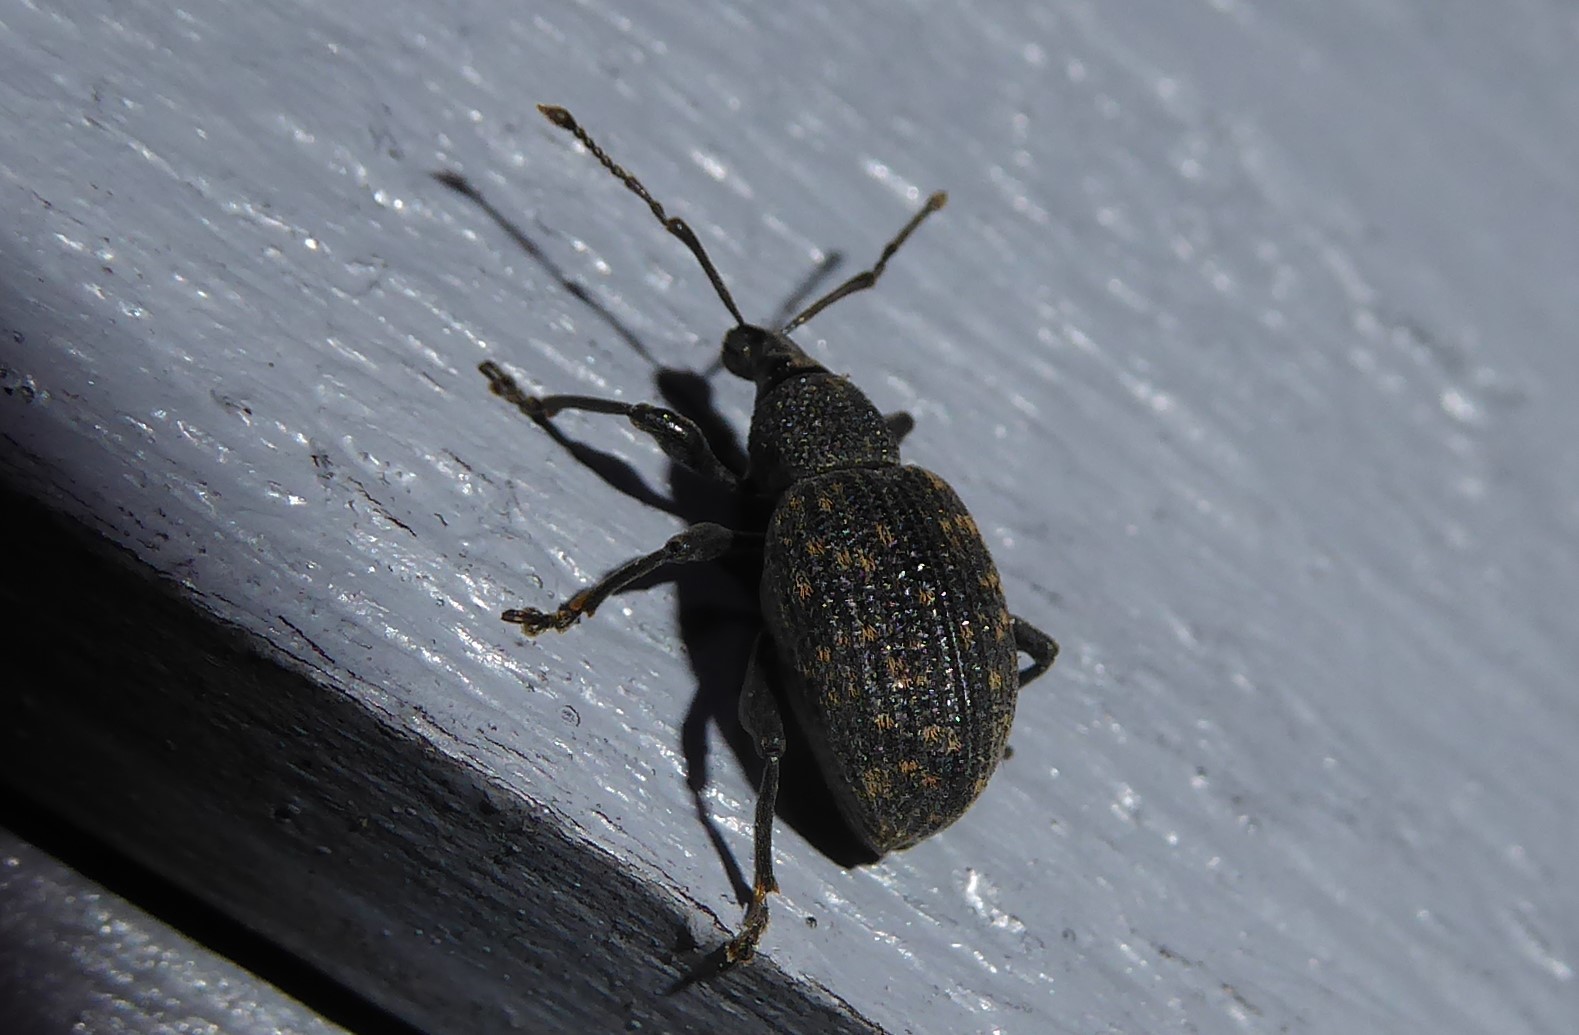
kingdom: Animalia
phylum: Arthropoda
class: Insecta
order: Coleoptera
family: Curculionidae
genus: Otiorhynchus
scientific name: Otiorhynchus sulcatus
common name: Black vine weevil
